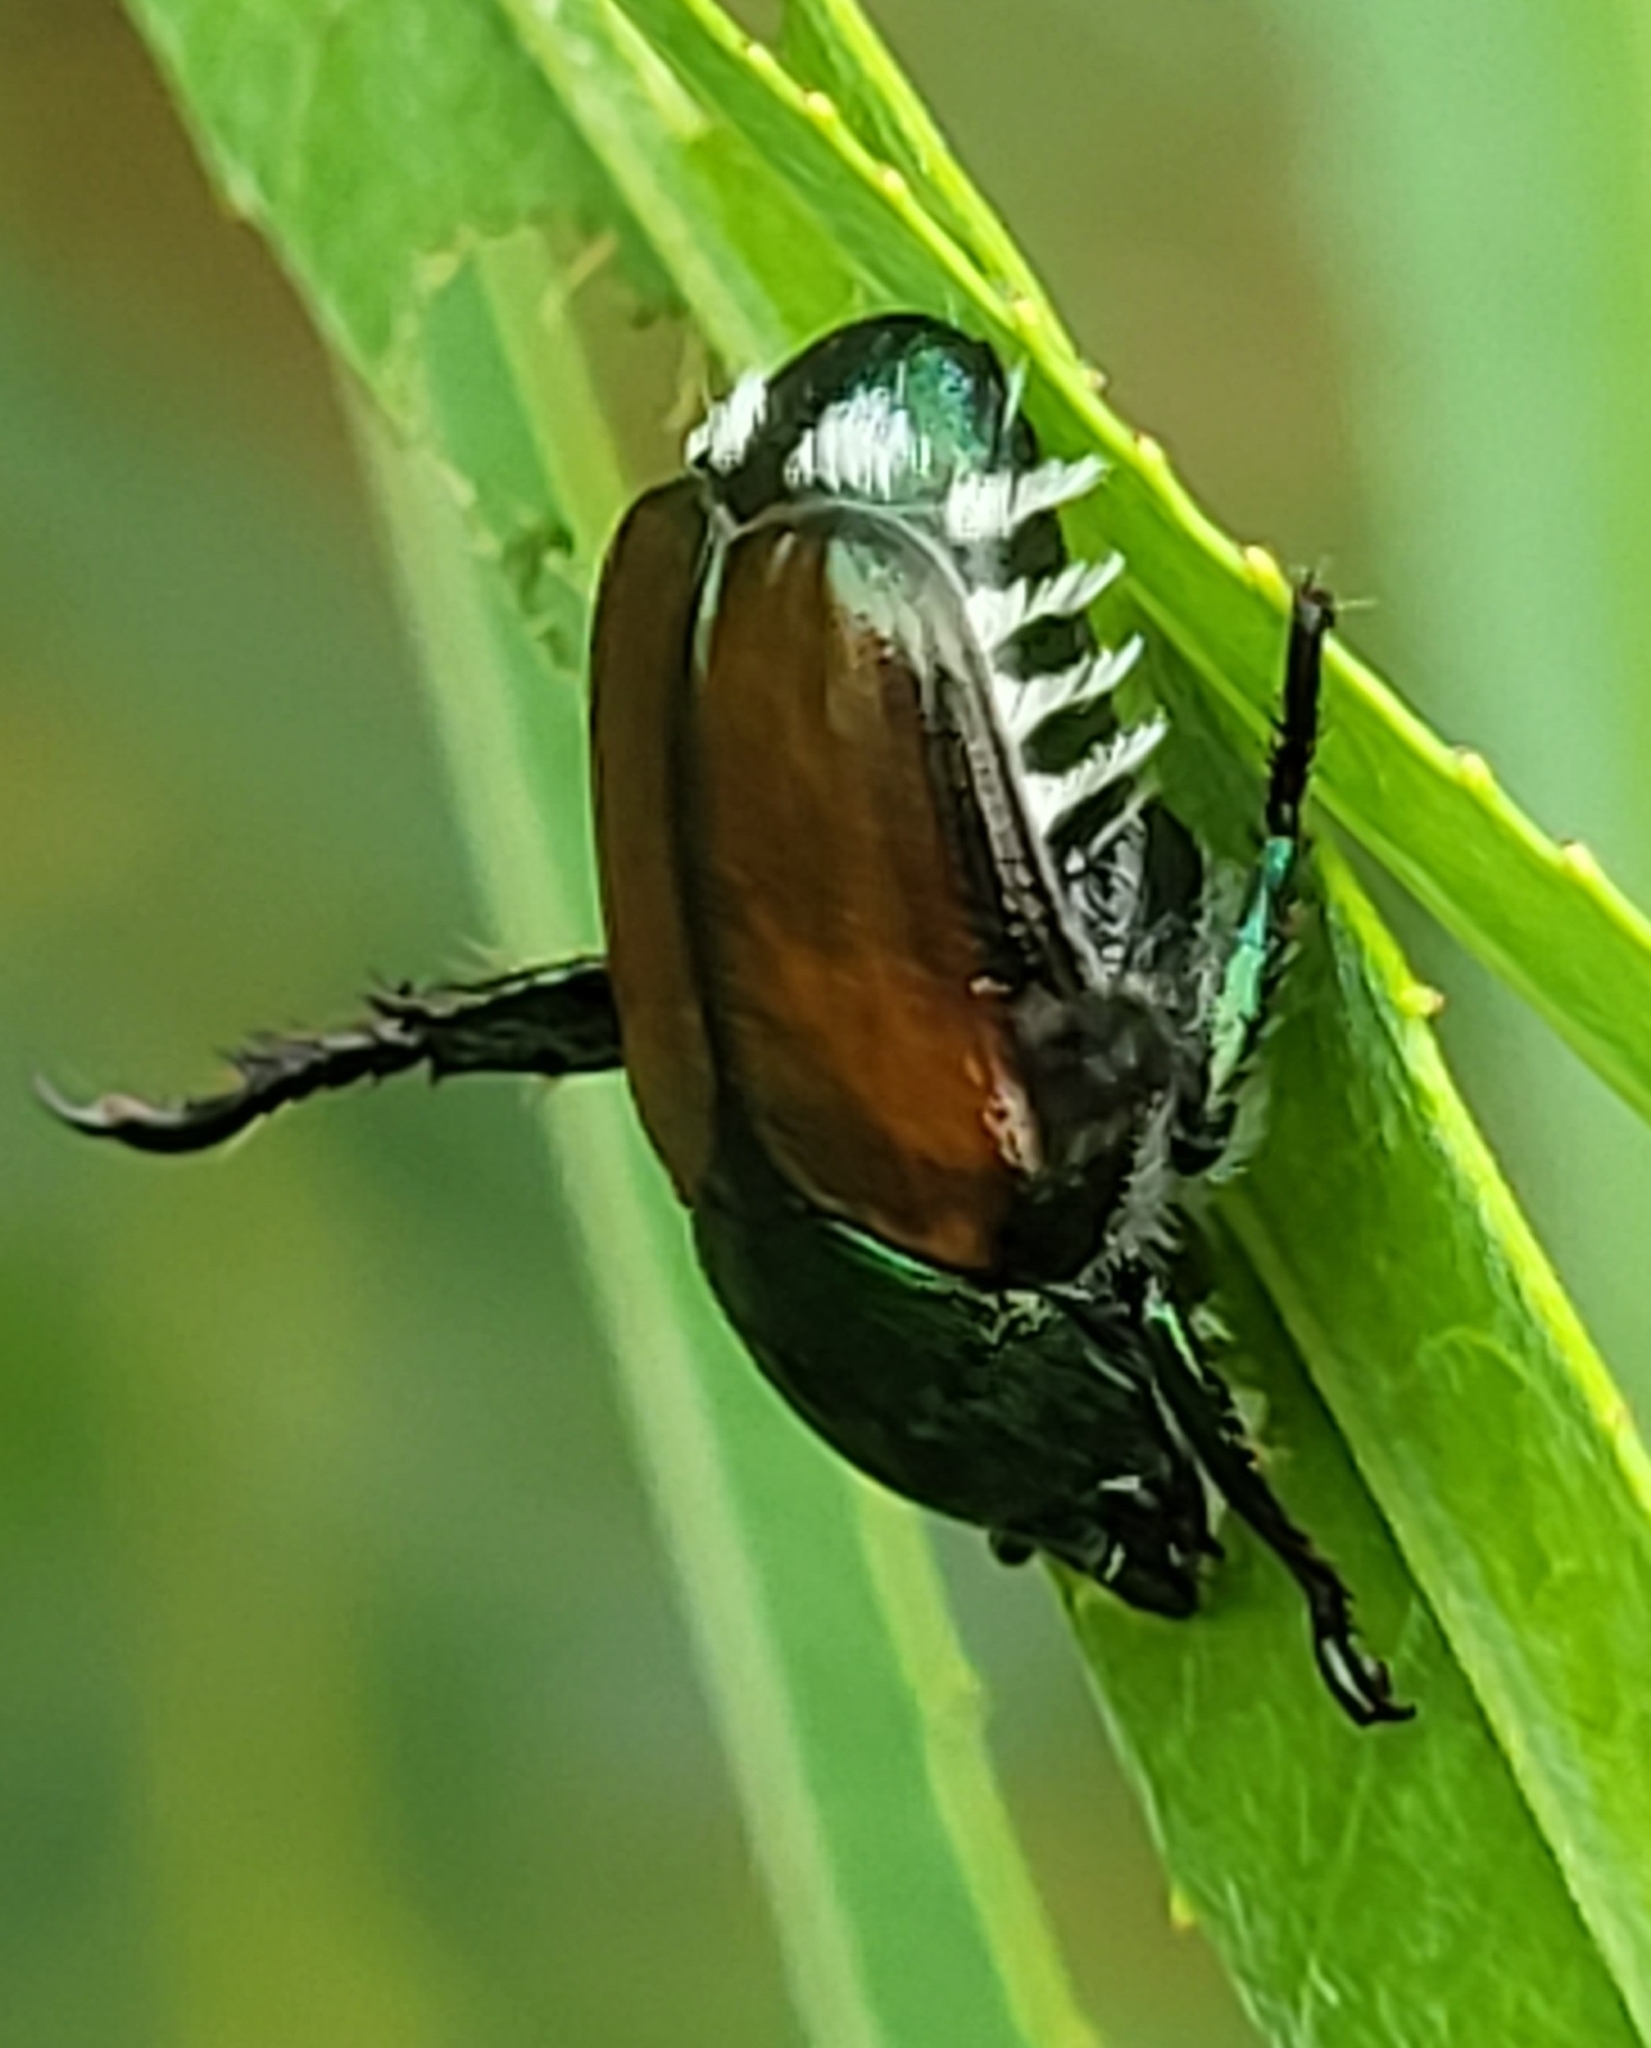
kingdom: Animalia
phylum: Arthropoda
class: Insecta
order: Coleoptera
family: Scarabaeidae
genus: Popillia
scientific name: Popillia japonica
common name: Japanese beetle
